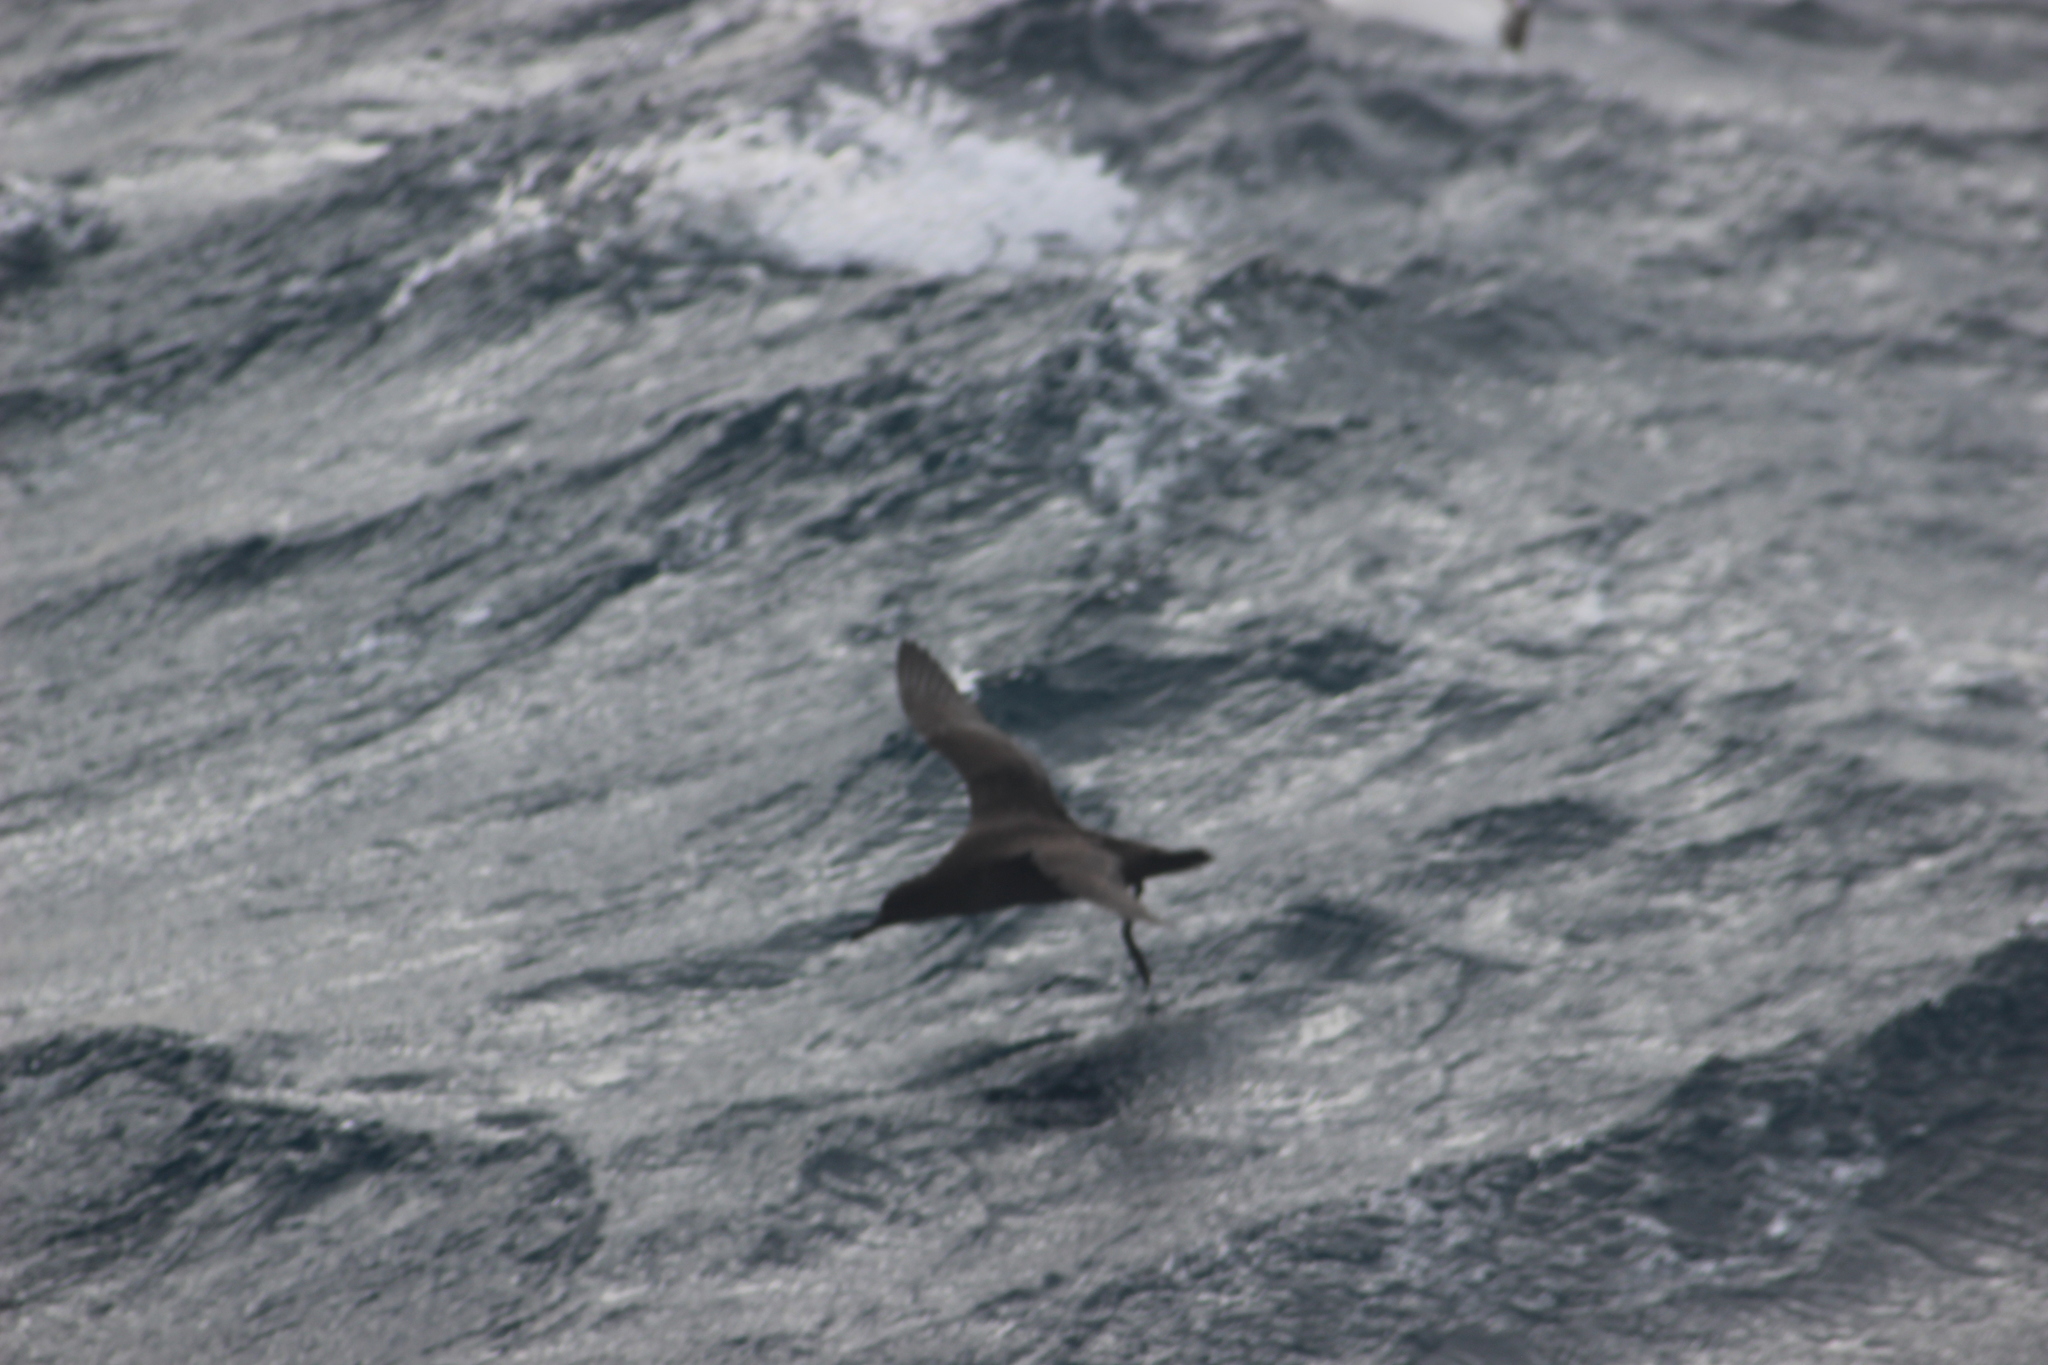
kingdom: Animalia
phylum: Chordata
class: Aves
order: Procellariiformes
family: Procellariidae
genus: Puffinus
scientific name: Puffinus griseus
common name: Sooty shearwater
